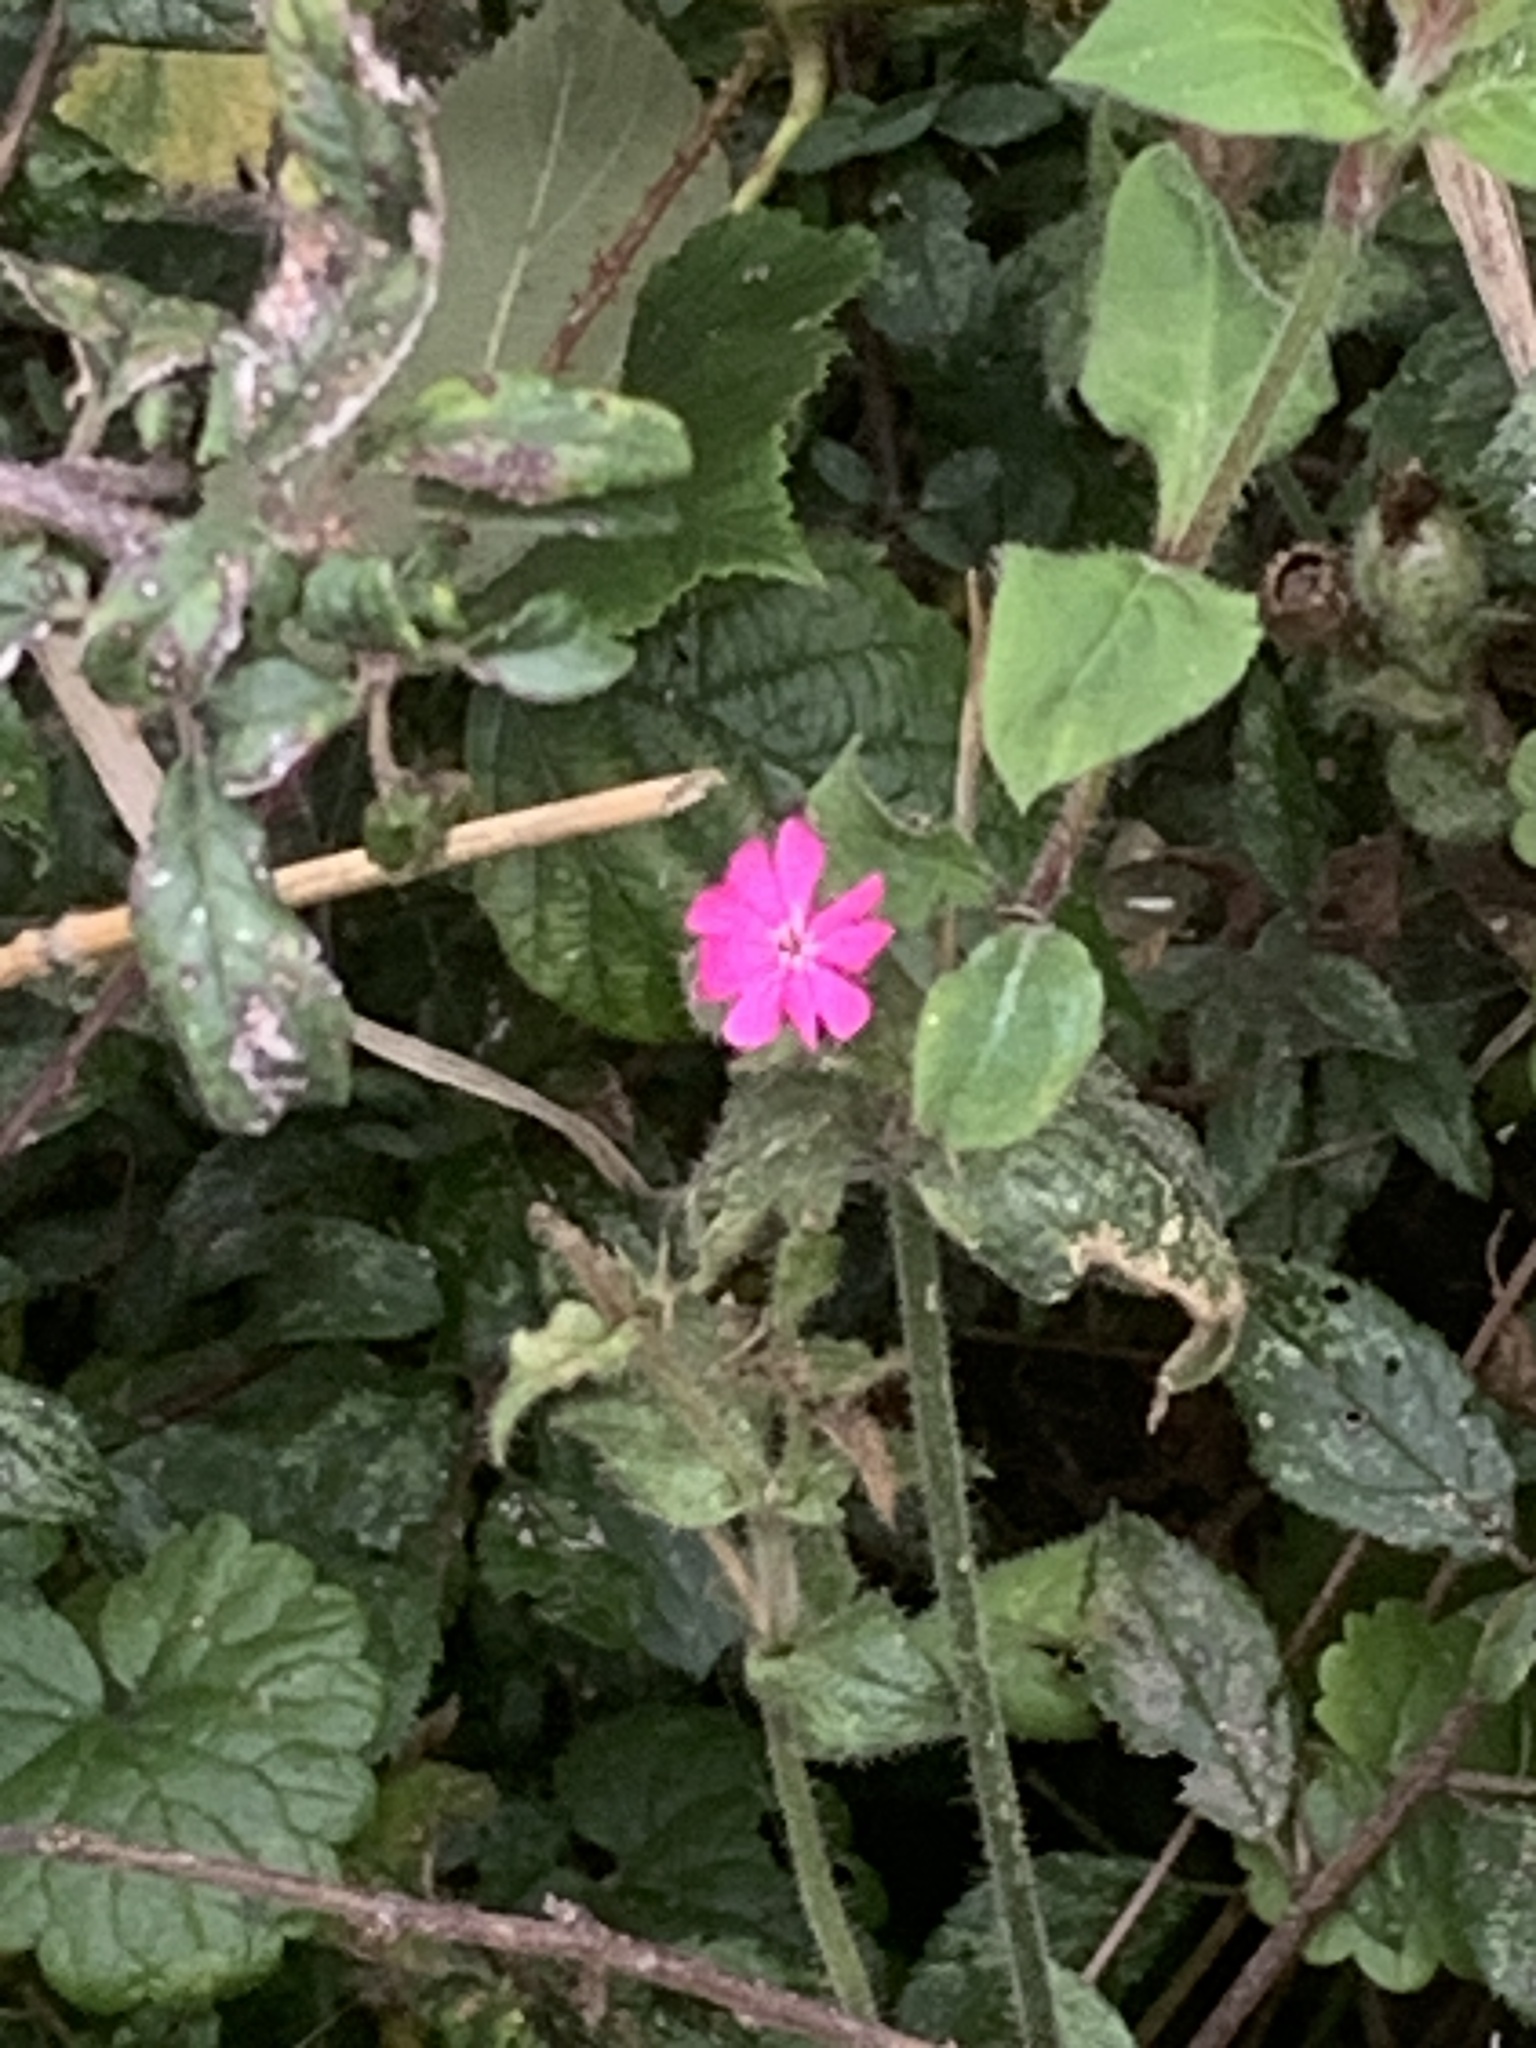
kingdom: Plantae
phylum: Tracheophyta
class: Magnoliopsida
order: Caryophyllales
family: Caryophyllaceae
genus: Silene
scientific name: Silene dioica
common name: Red campion
